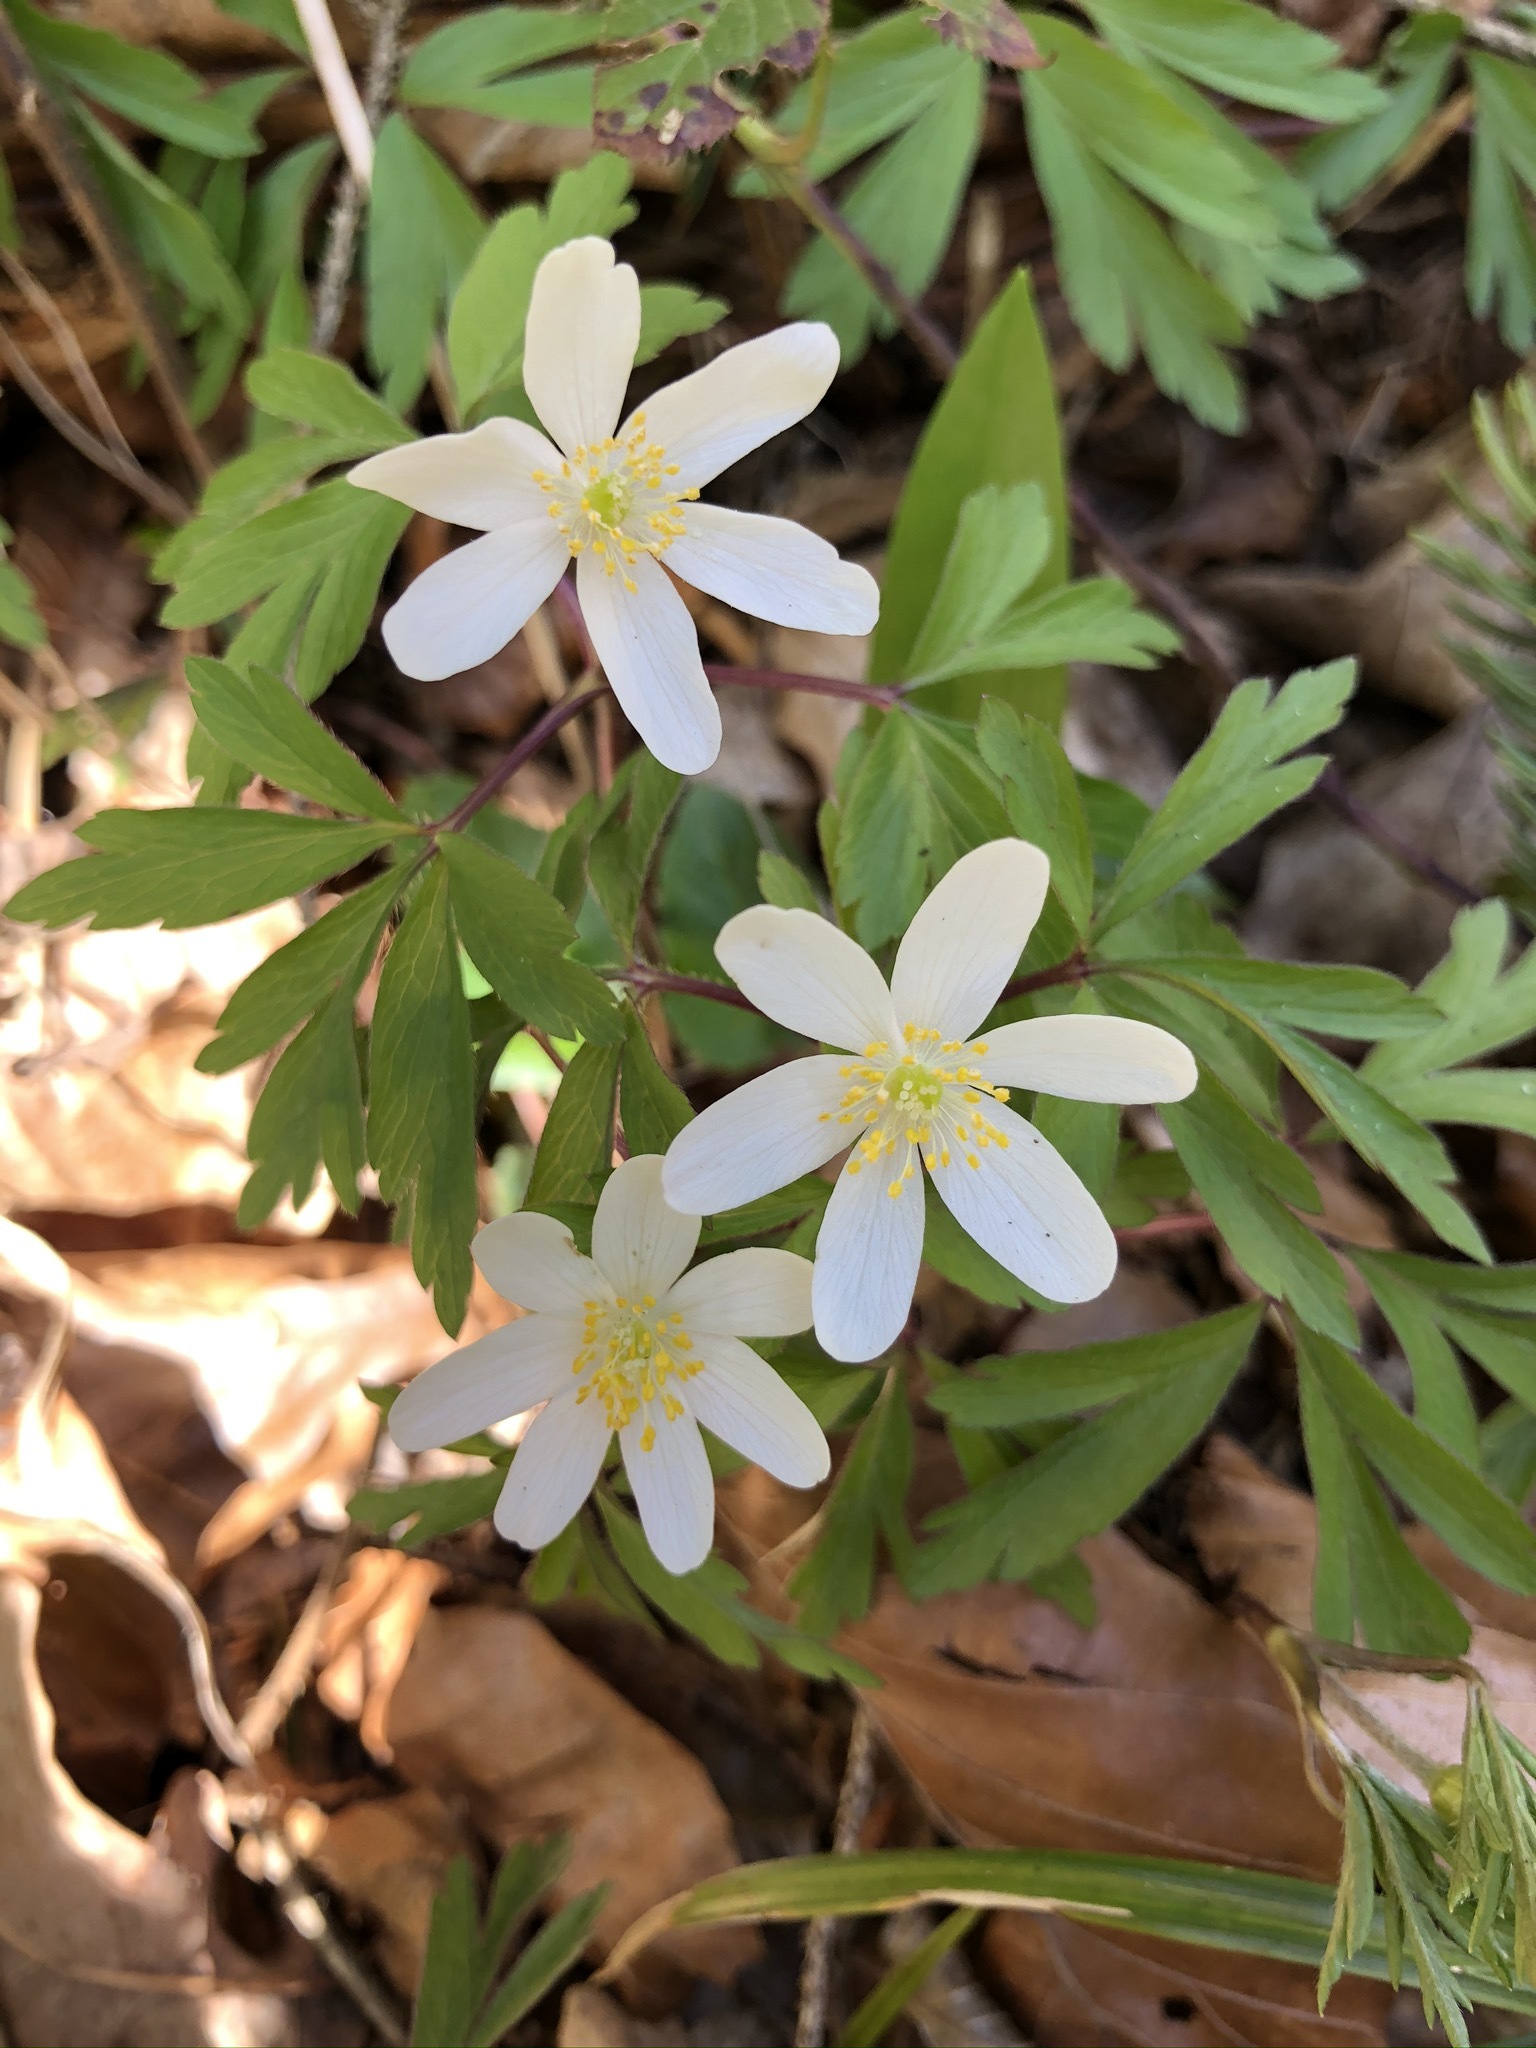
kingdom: Plantae
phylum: Tracheophyta
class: Magnoliopsida
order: Ranunculales
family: Ranunculaceae
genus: Anemone
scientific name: Anemone nemorosa
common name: Wood anemone
